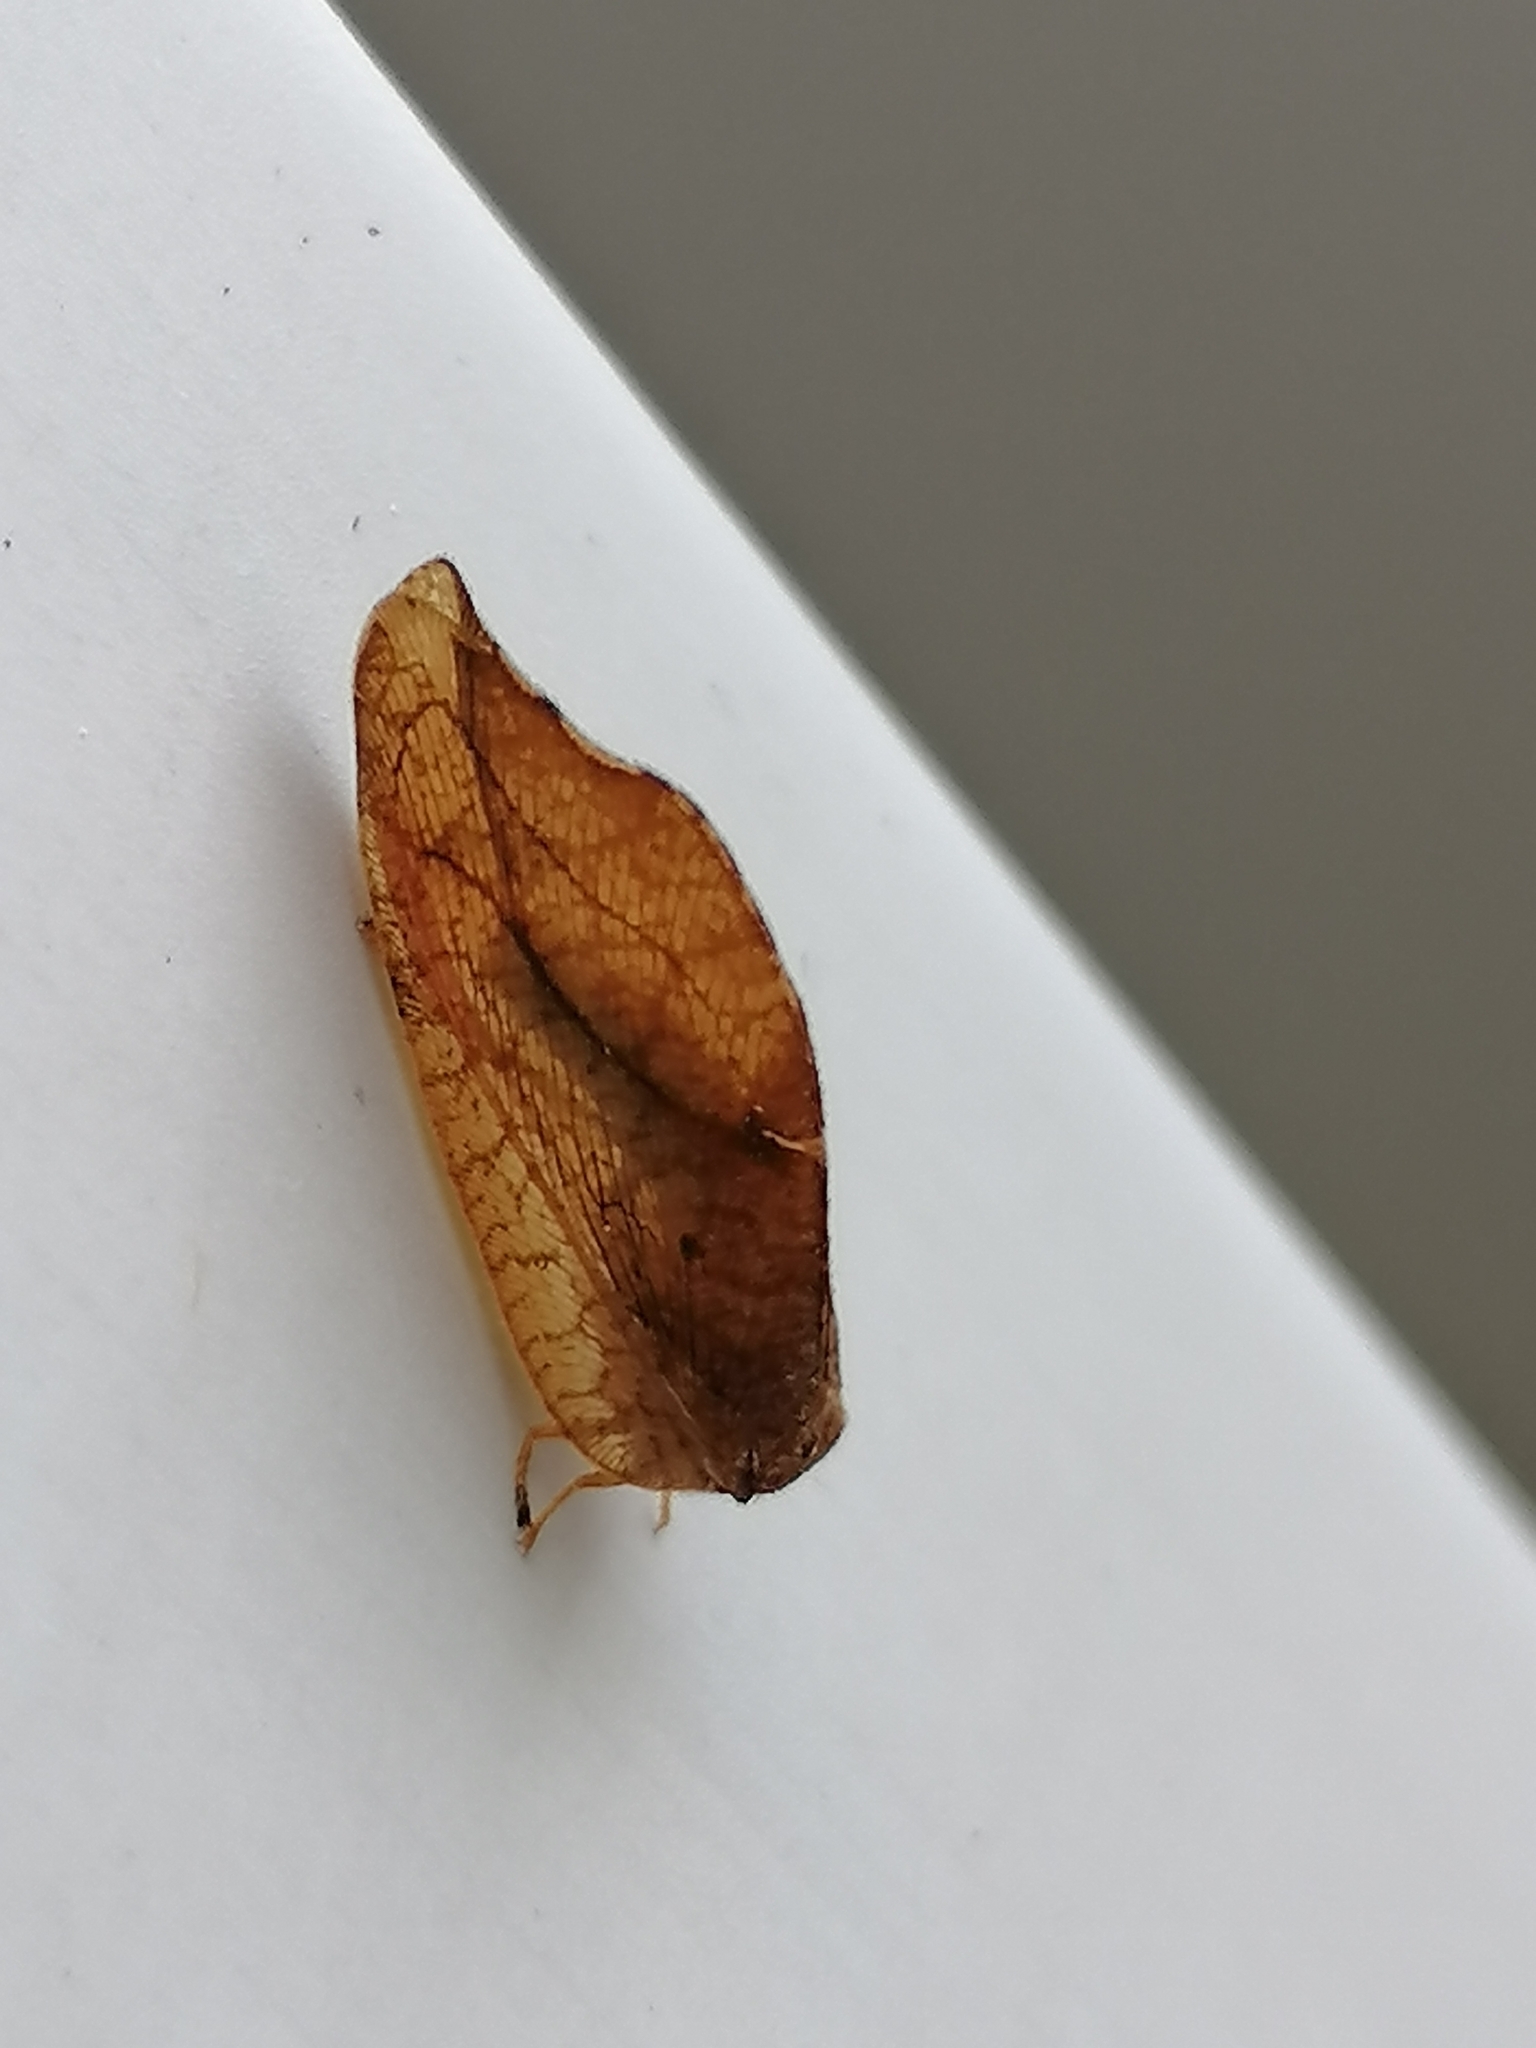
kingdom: Animalia
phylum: Arthropoda
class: Insecta
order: Neuroptera
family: Hemerobiidae
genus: Drepanepteryx
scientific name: Drepanepteryx phalaenoides
